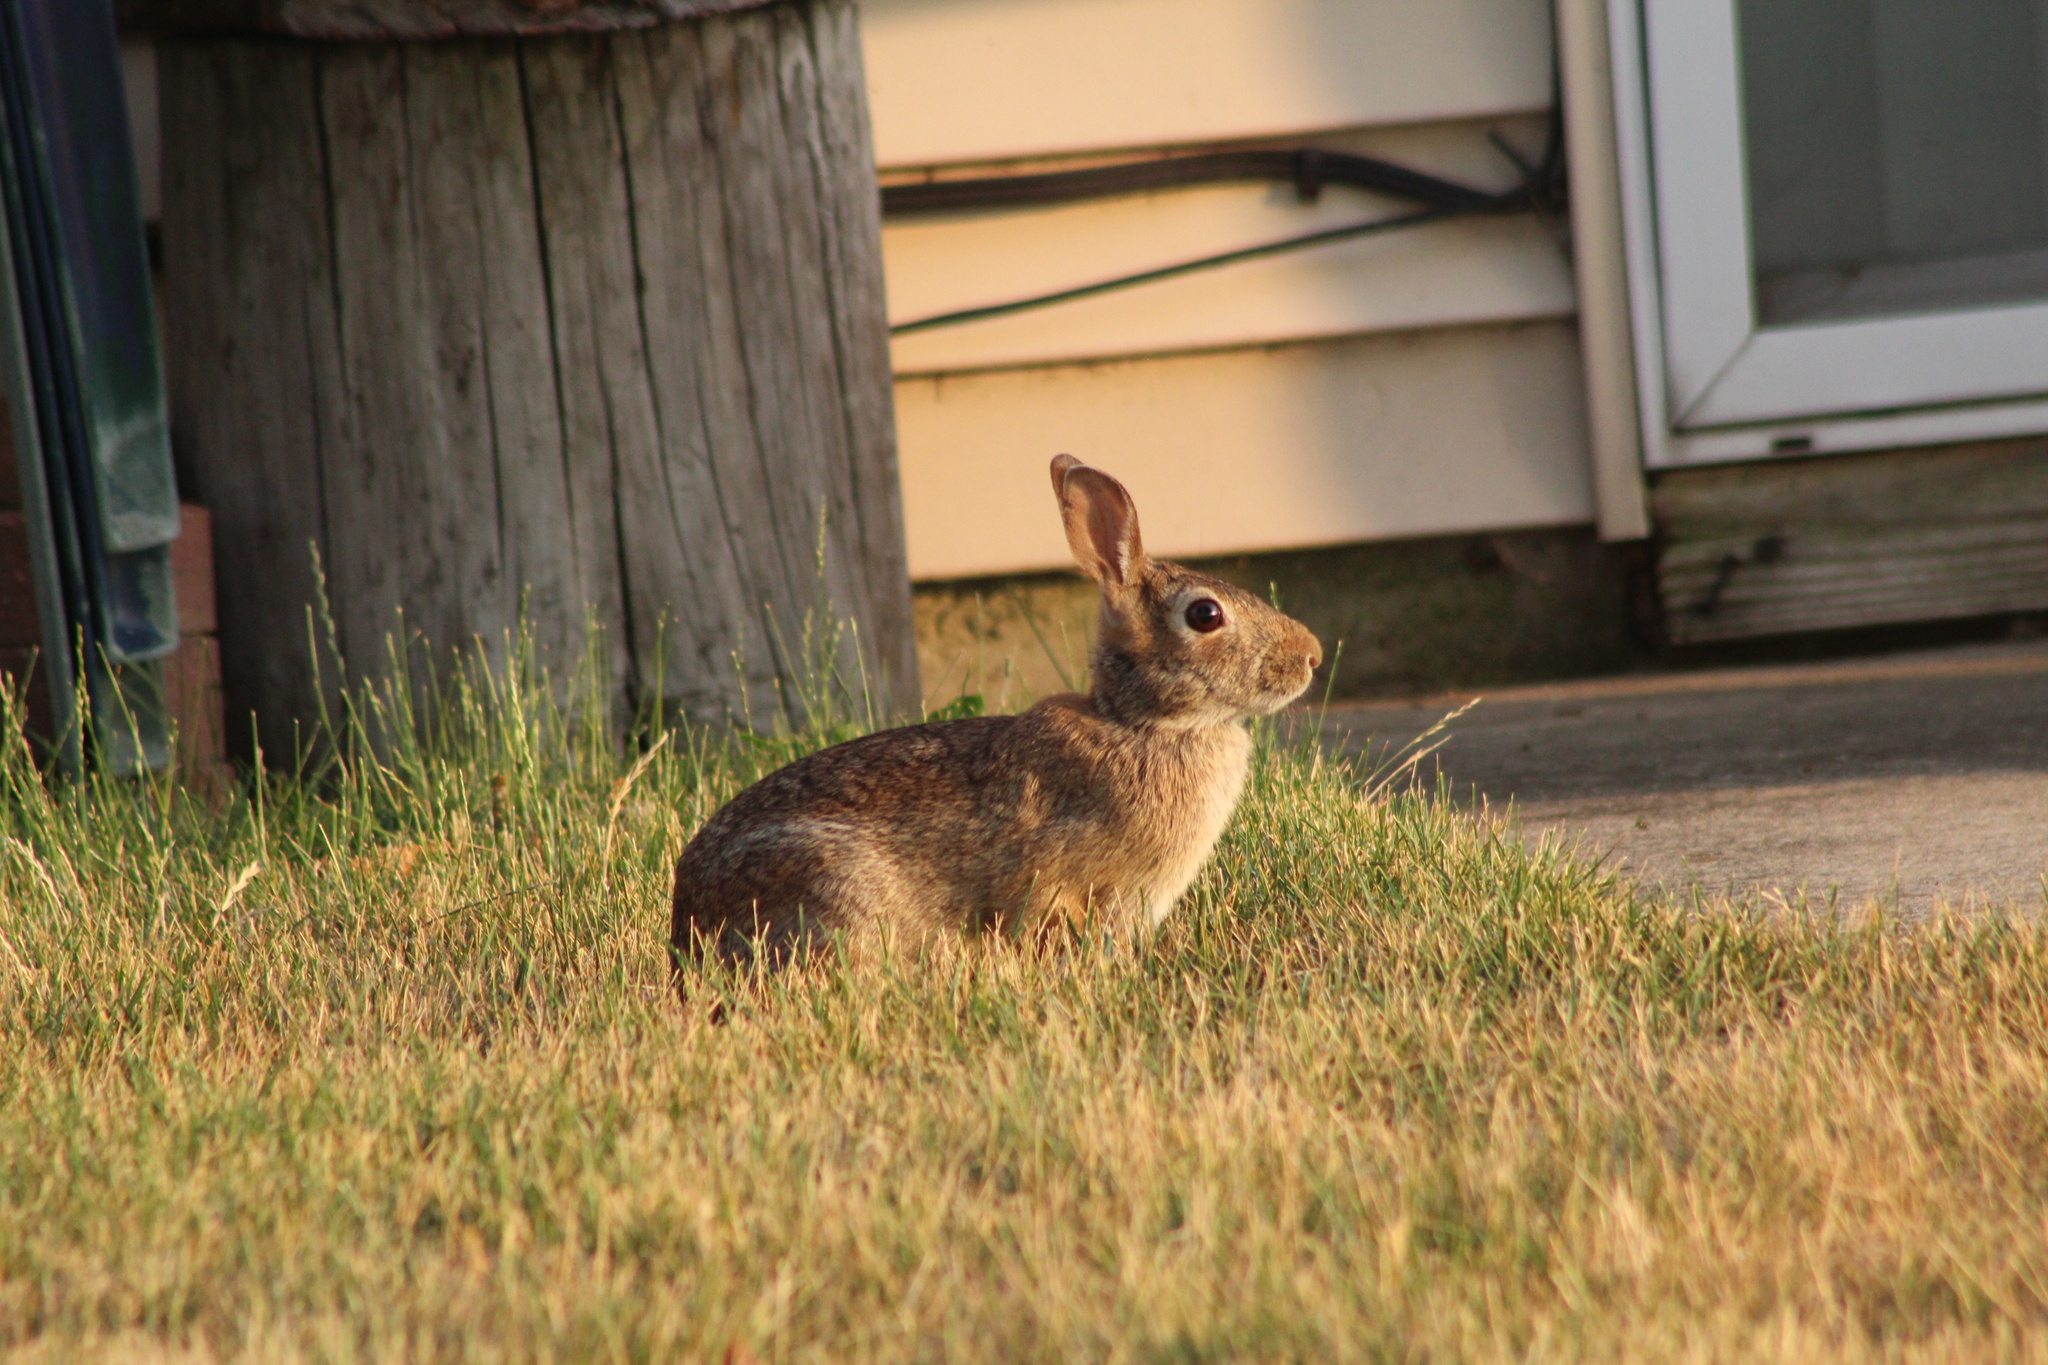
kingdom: Animalia
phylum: Chordata
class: Mammalia
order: Lagomorpha
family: Leporidae
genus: Sylvilagus
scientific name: Sylvilagus floridanus
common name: Eastern cottontail
